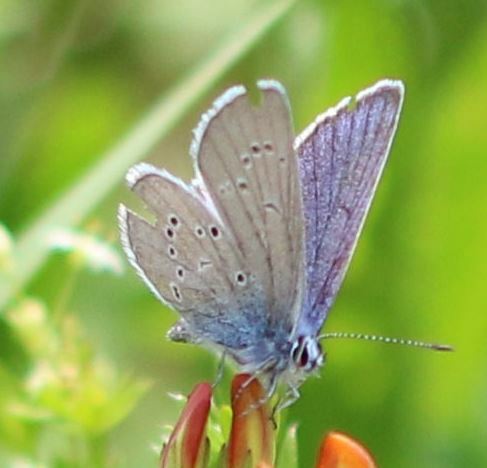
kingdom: Animalia
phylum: Arthropoda
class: Insecta
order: Lepidoptera
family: Lycaenidae
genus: Cyaniris
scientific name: Cyaniris semiargus
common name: Mazarine blue
